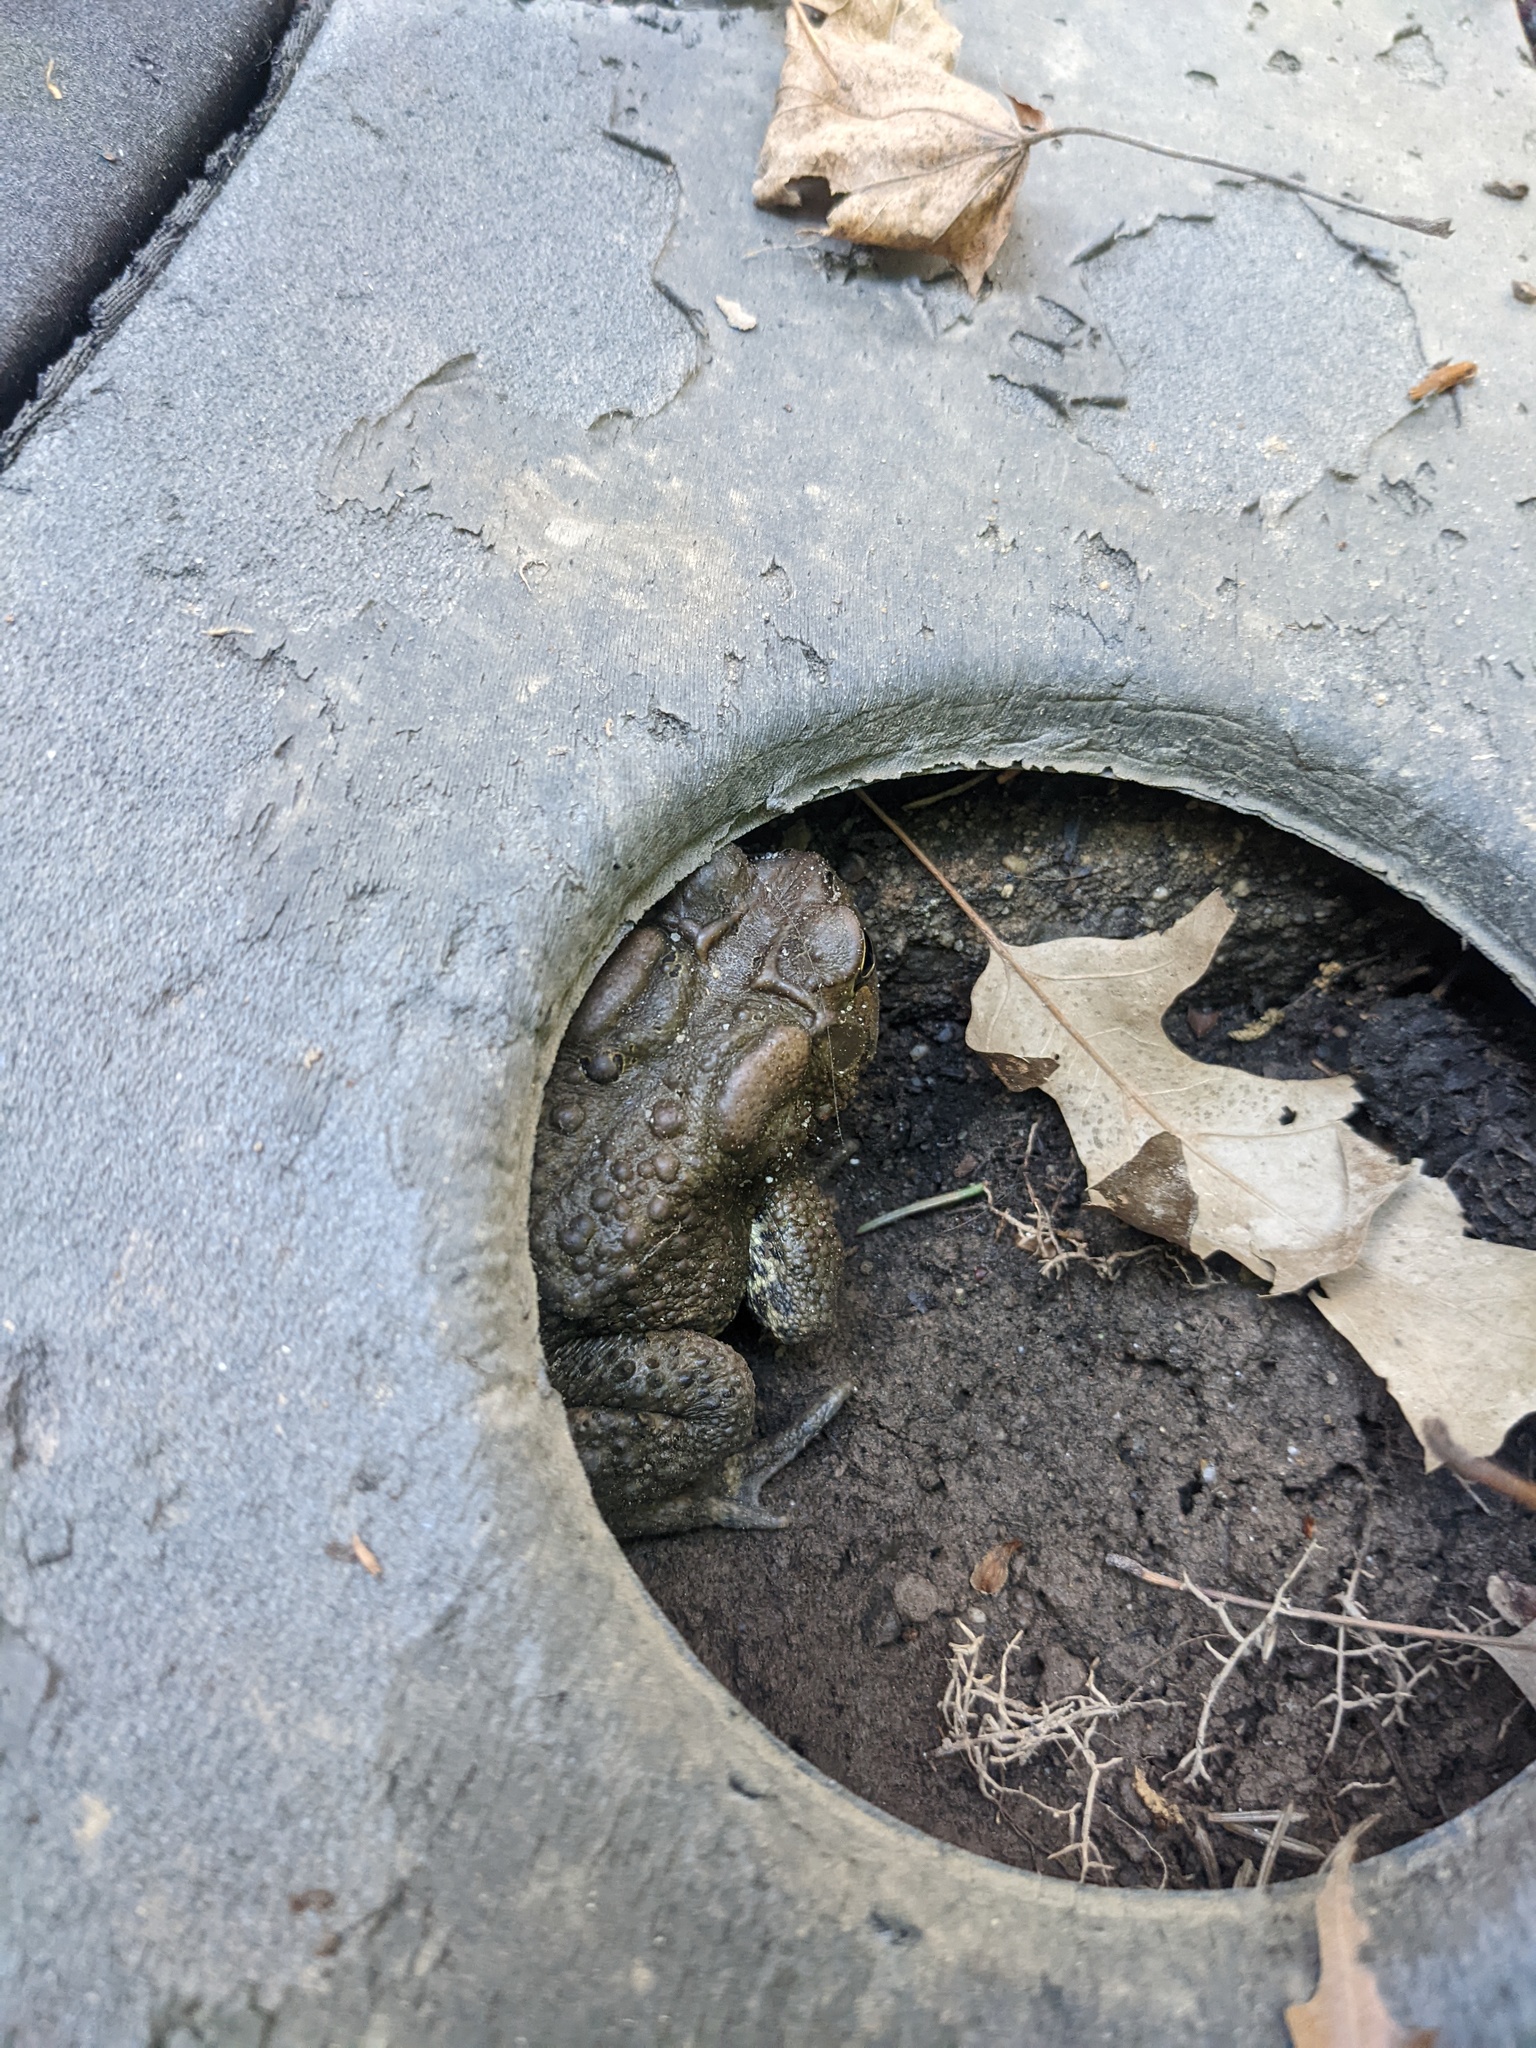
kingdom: Animalia
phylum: Chordata
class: Amphibia
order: Anura
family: Bufonidae
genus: Anaxyrus
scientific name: Anaxyrus americanus
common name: American toad
